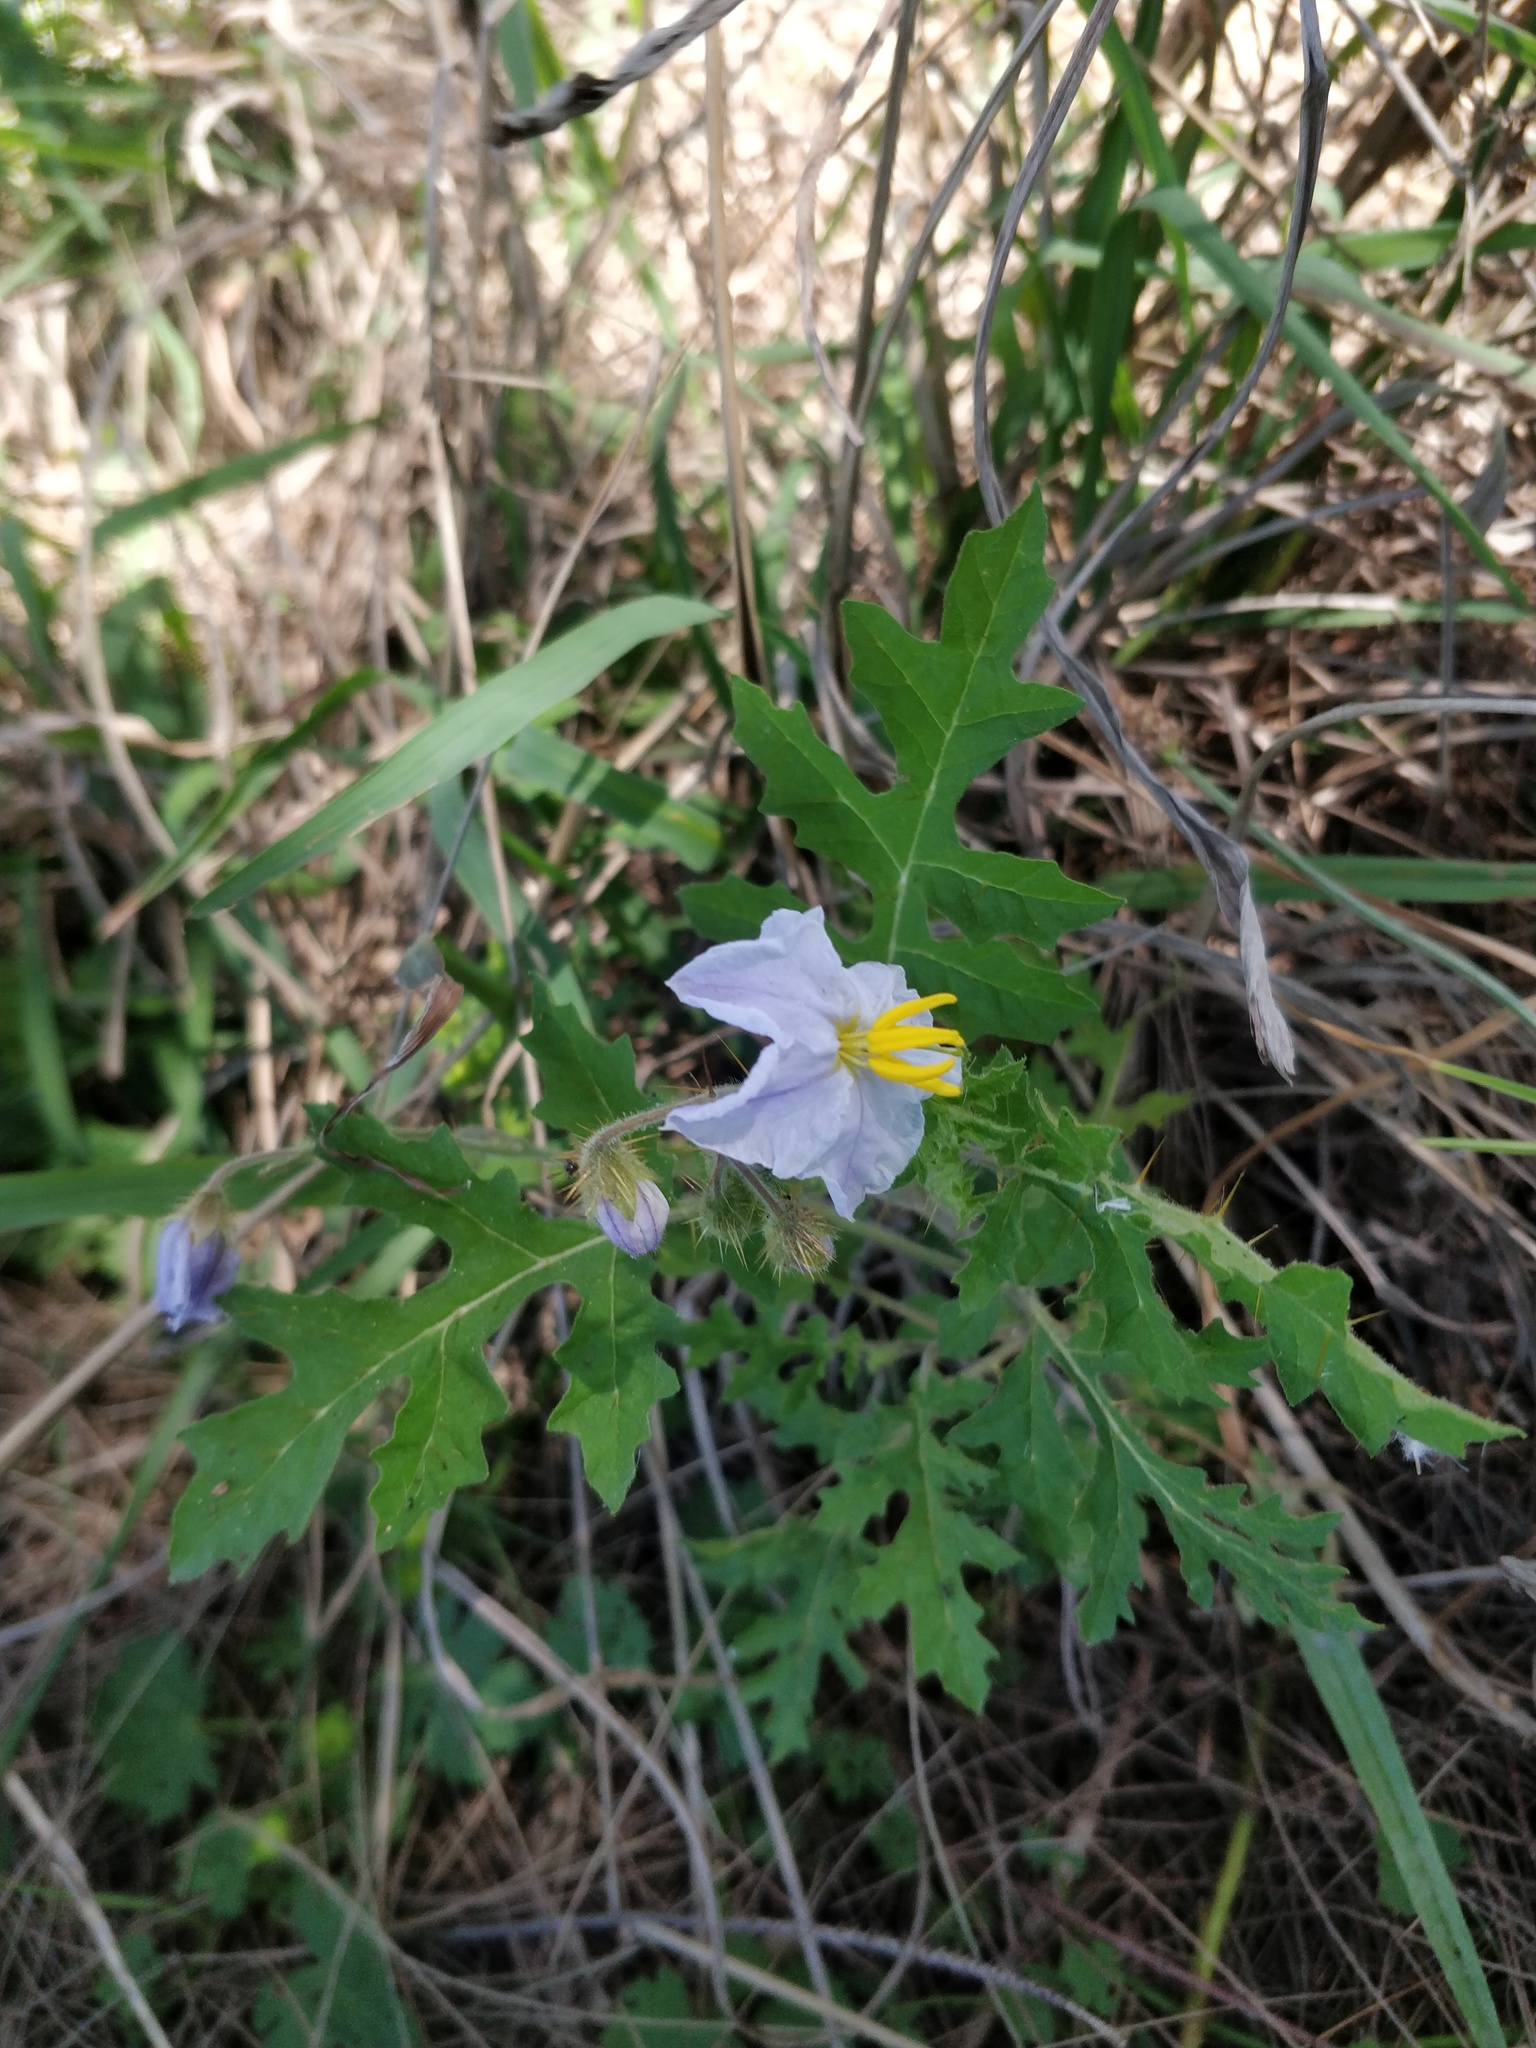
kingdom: Plantae
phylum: Tracheophyta
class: Magnoliopsida
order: Solanales
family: Solanaceae
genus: Solanum
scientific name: Solanum sisymbriifolium
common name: Red buffalo-bur
